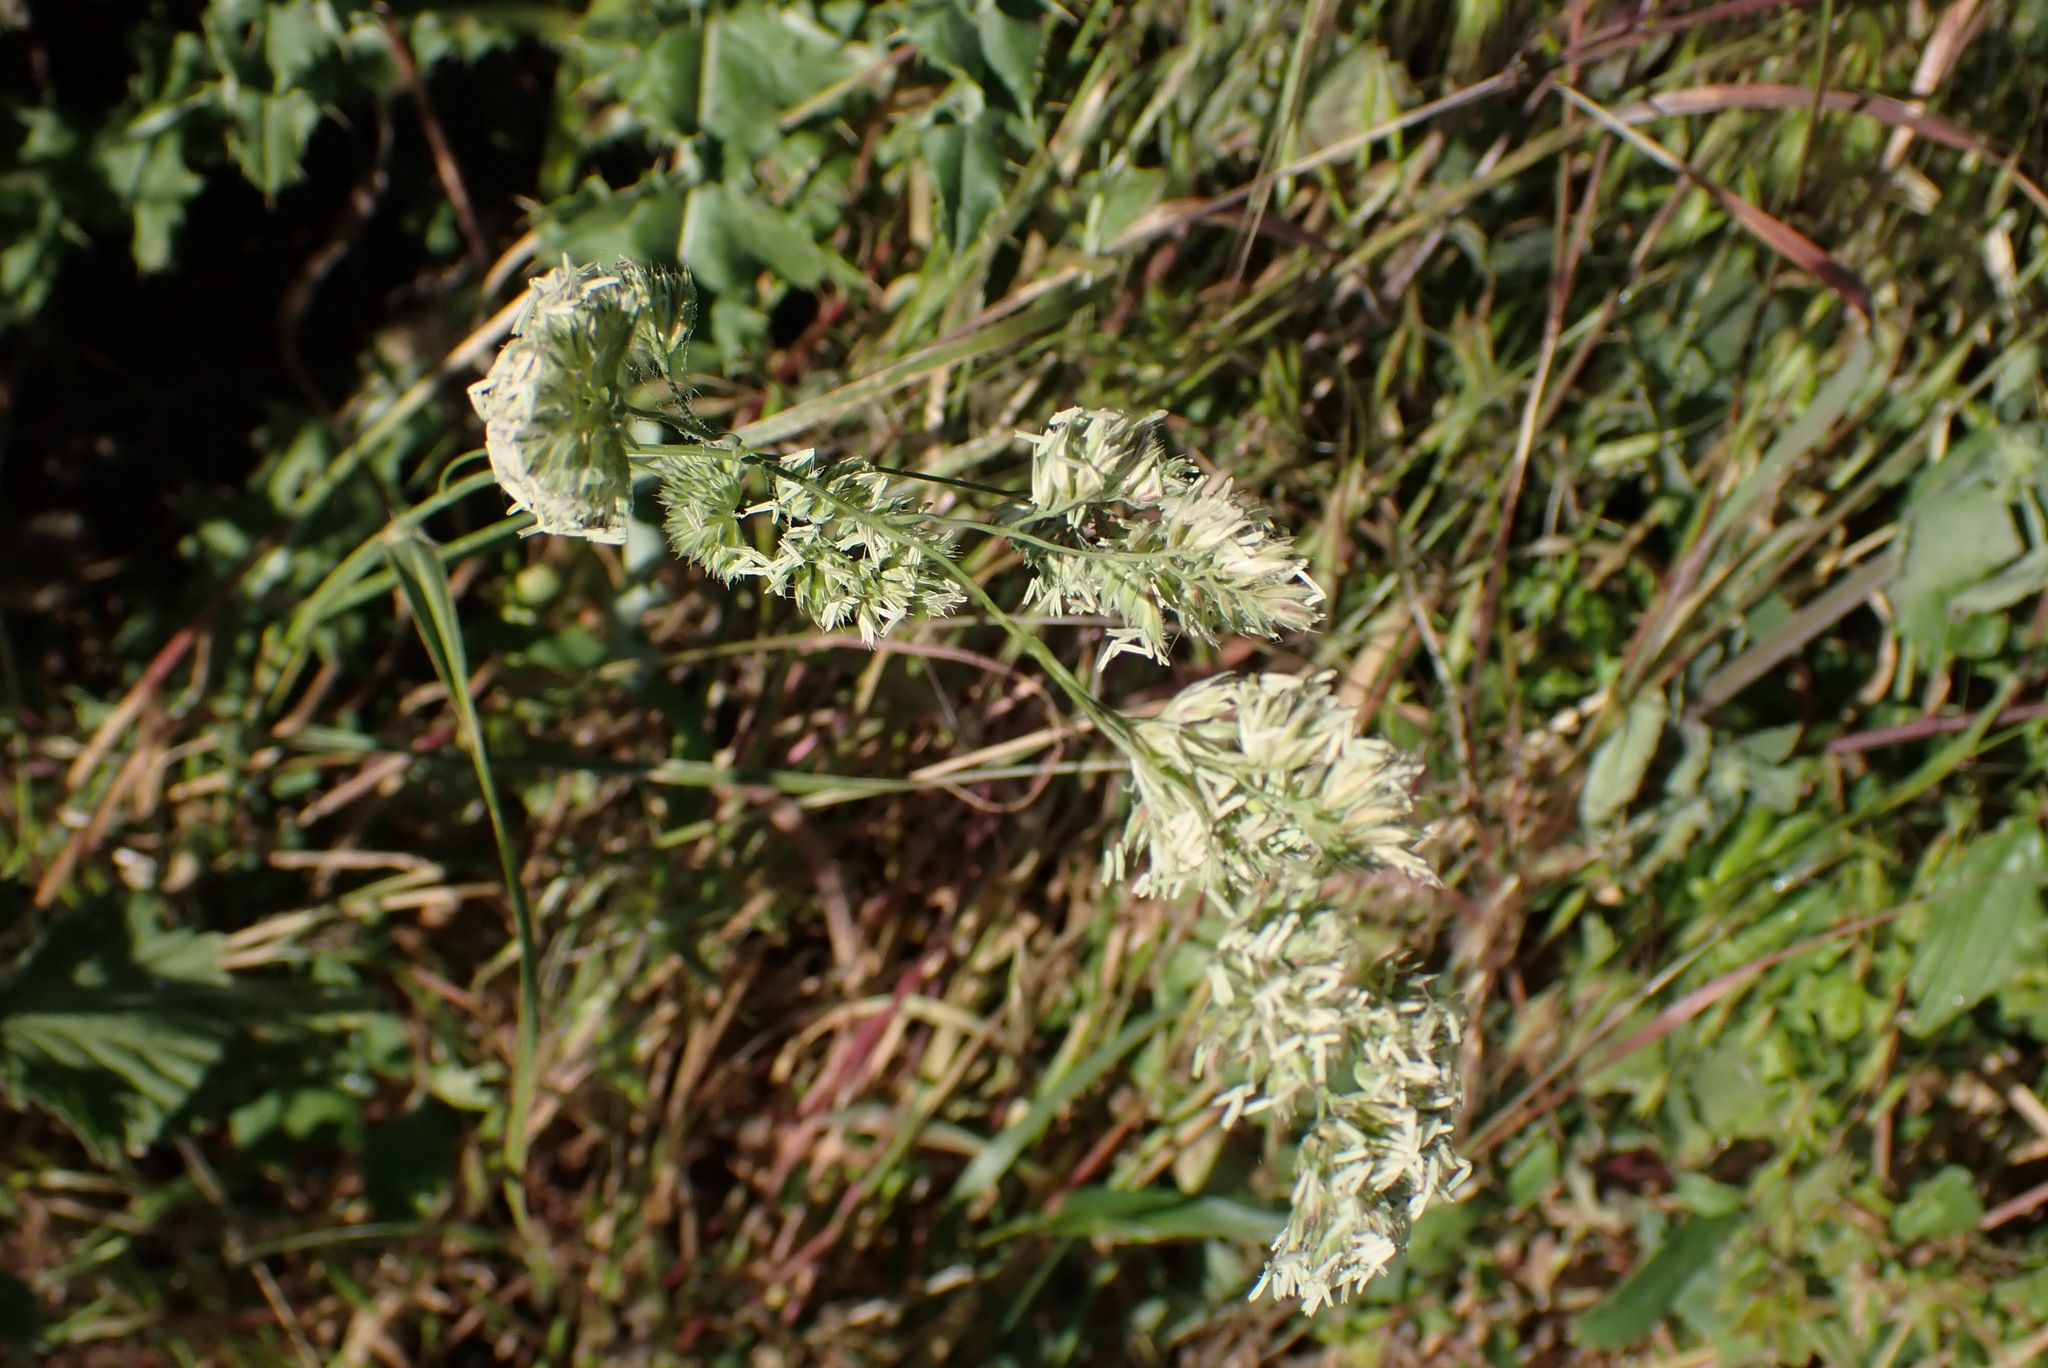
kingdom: Plantae
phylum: Tracheophyta
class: Liliopsida
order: Poales
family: Poaceae
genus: Dactylis
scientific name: Dactylis glomerata
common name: Orchardgrass
